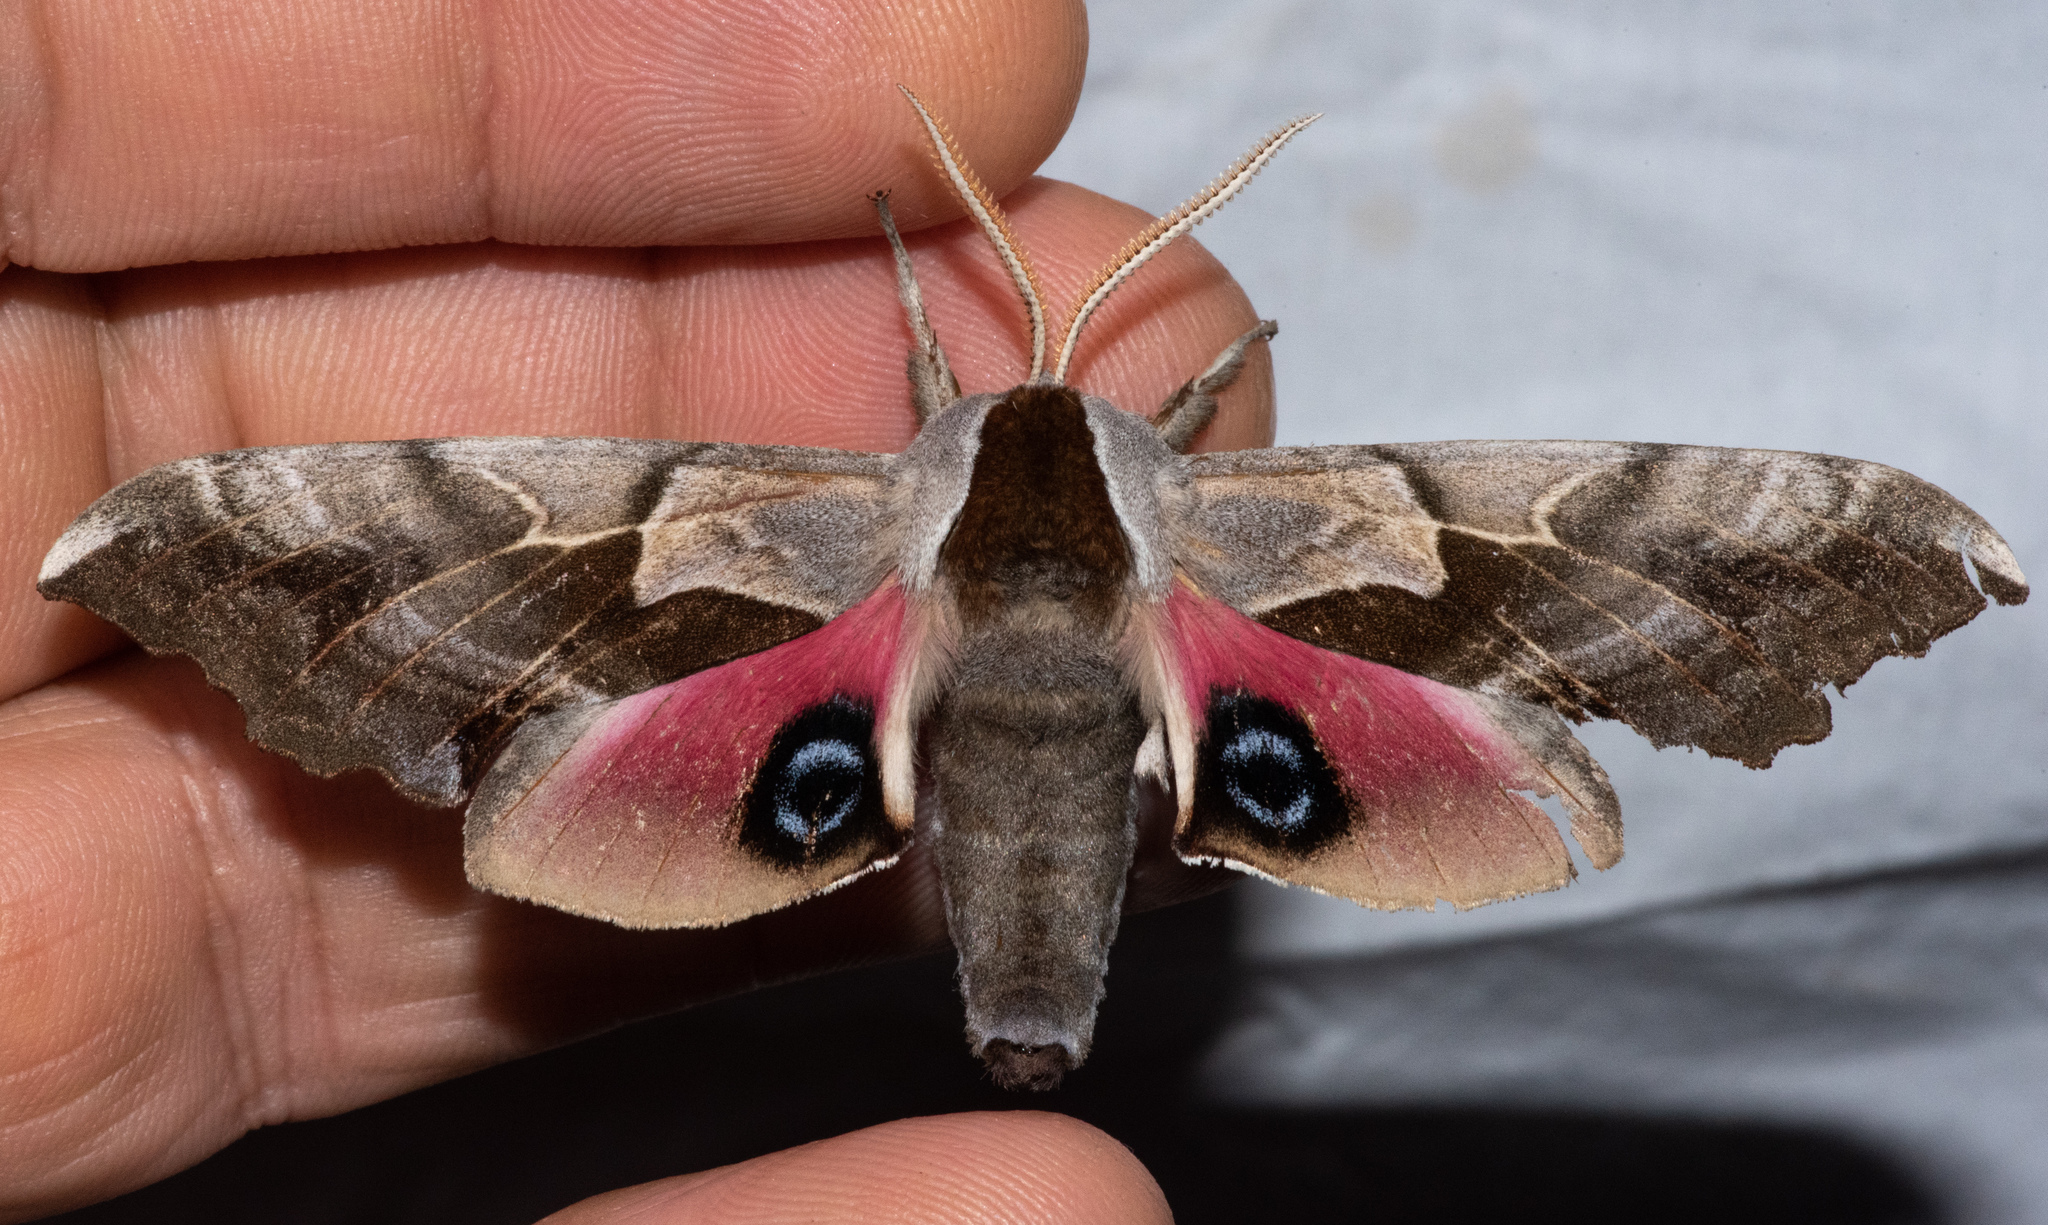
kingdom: Animalia
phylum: Arthropoda
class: Insecta
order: Lepidoptera
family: Sphingidae
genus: Smerinthus
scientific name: Smerinthus cerisyi
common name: Cerisy's sphinx moth
